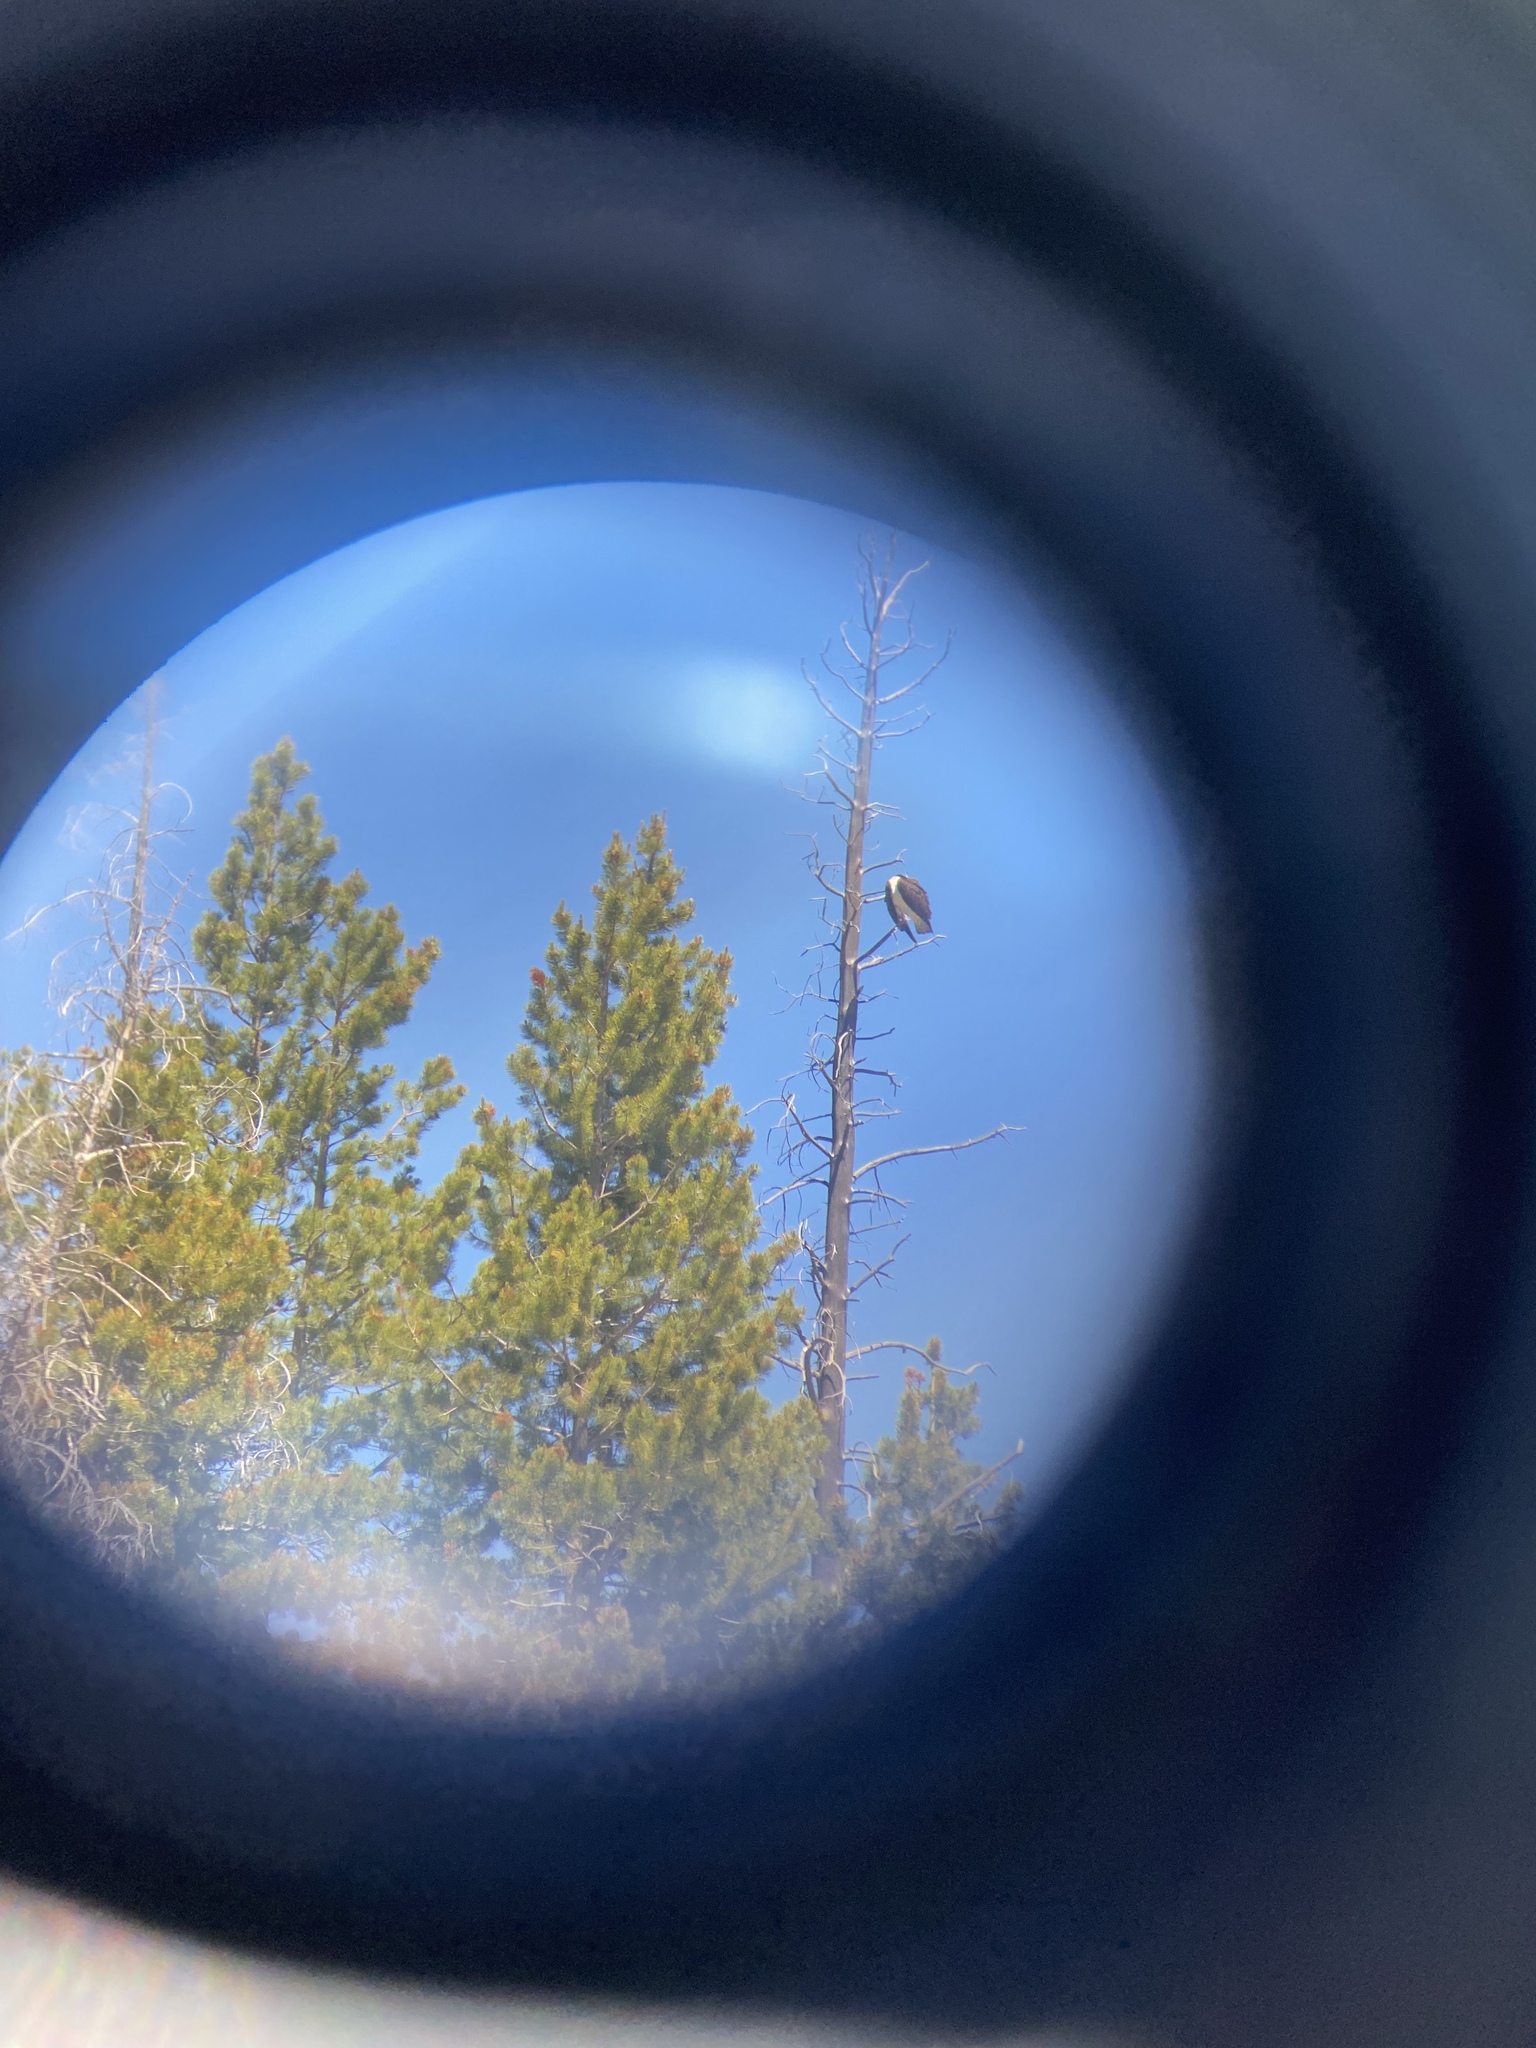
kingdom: Animalia
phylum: Chordata
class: Aves
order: Accipitriformes
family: Pandionidae
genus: Pandion
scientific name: Pandion haliaetus
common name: Osprey
